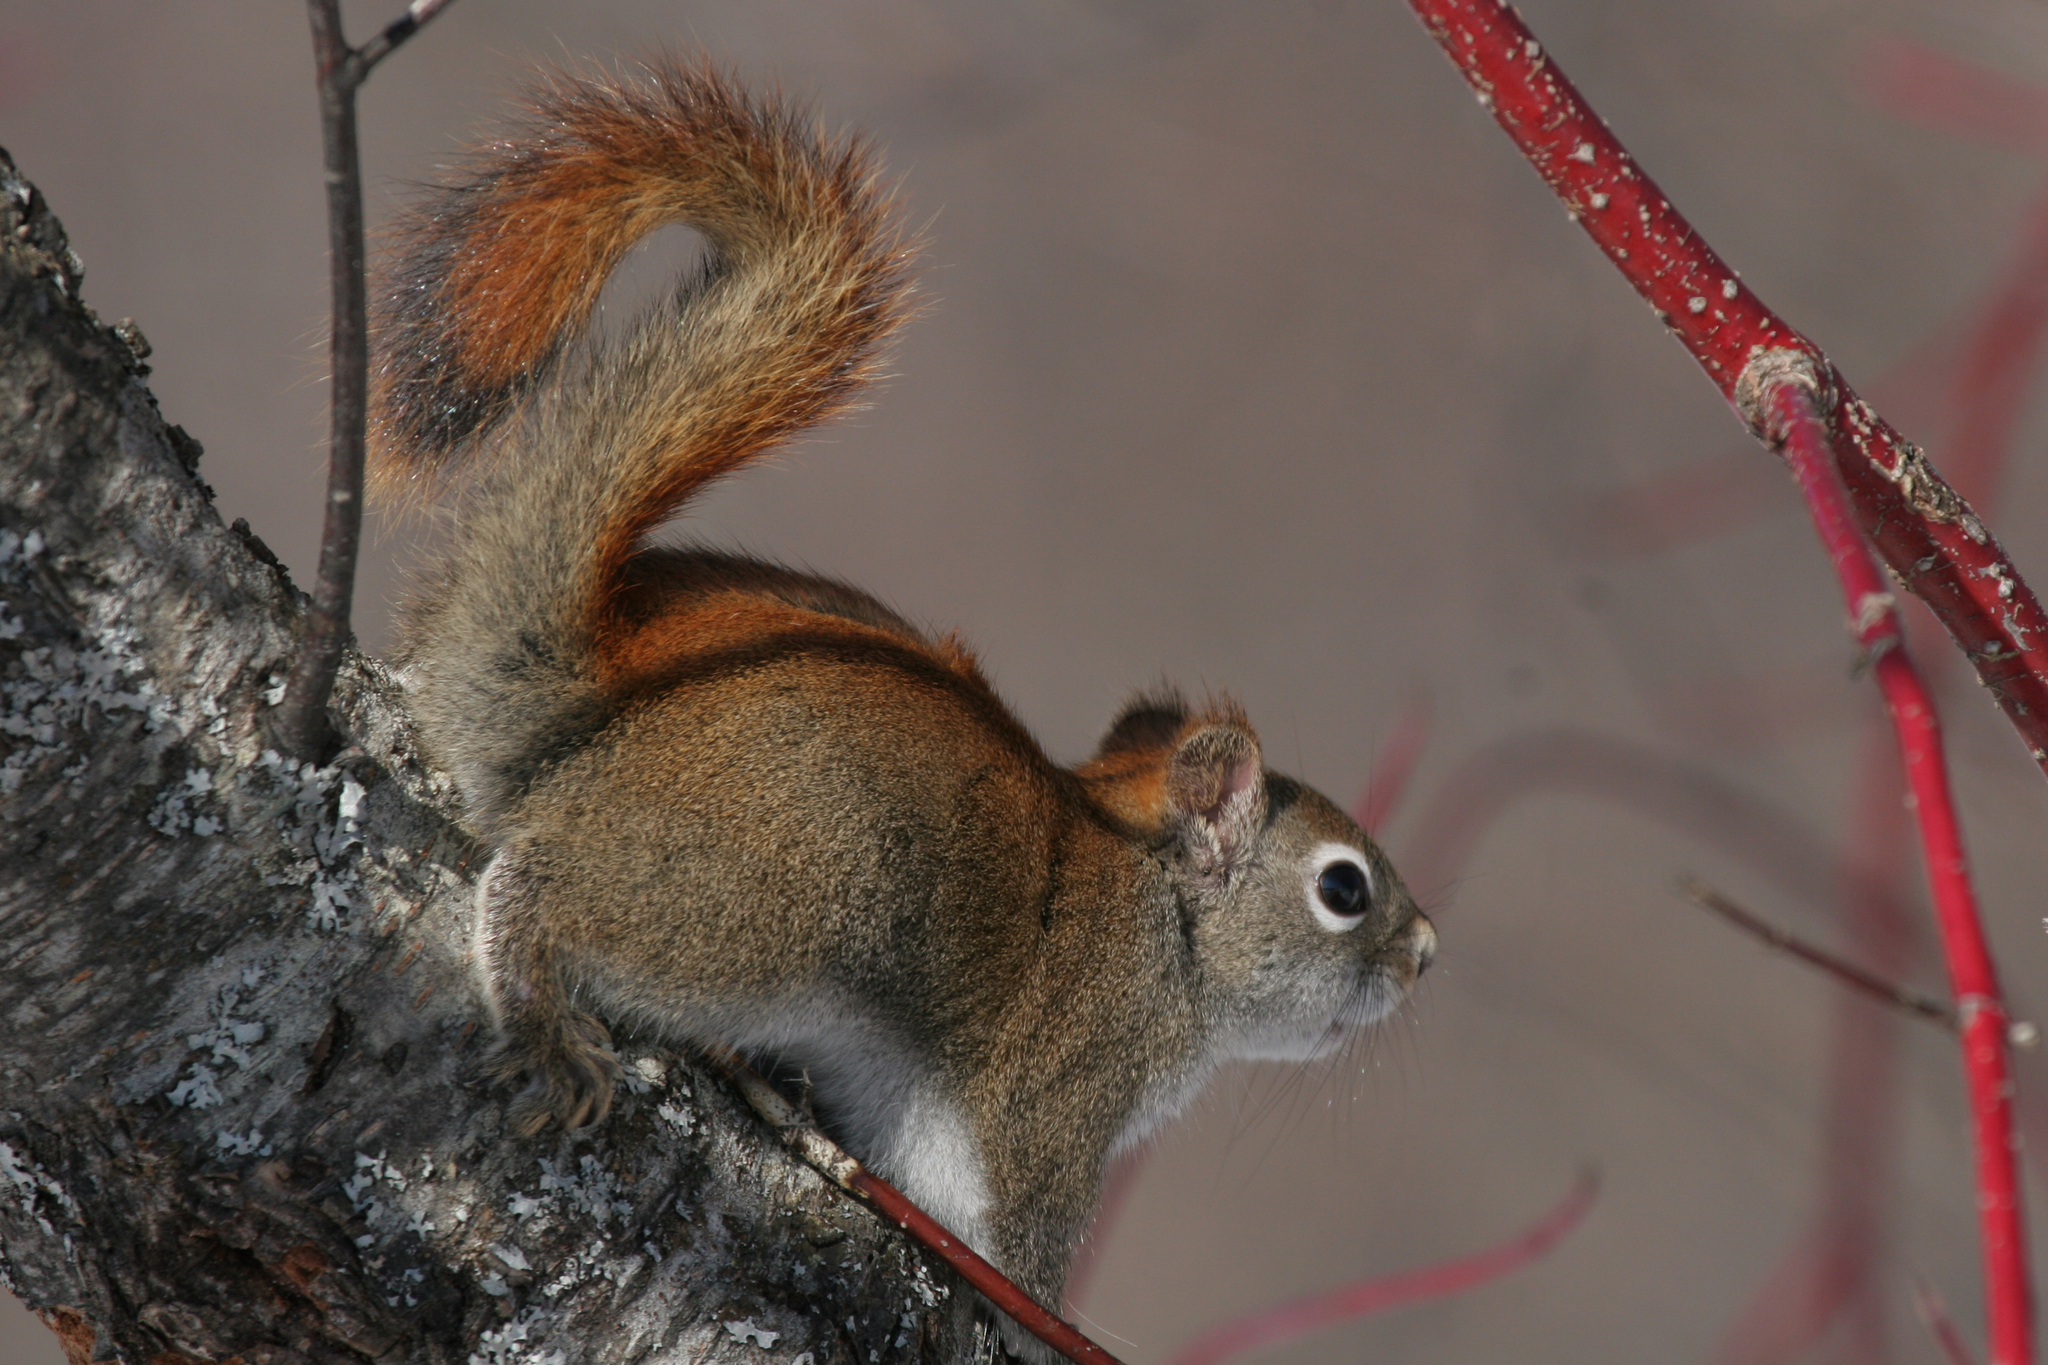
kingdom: Animalia
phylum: Chordata
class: Mammalia
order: Rodentia
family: Sciuridae
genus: Tamiasciurus
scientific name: Tamiasciurus hudsonicus
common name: Red squirrel
